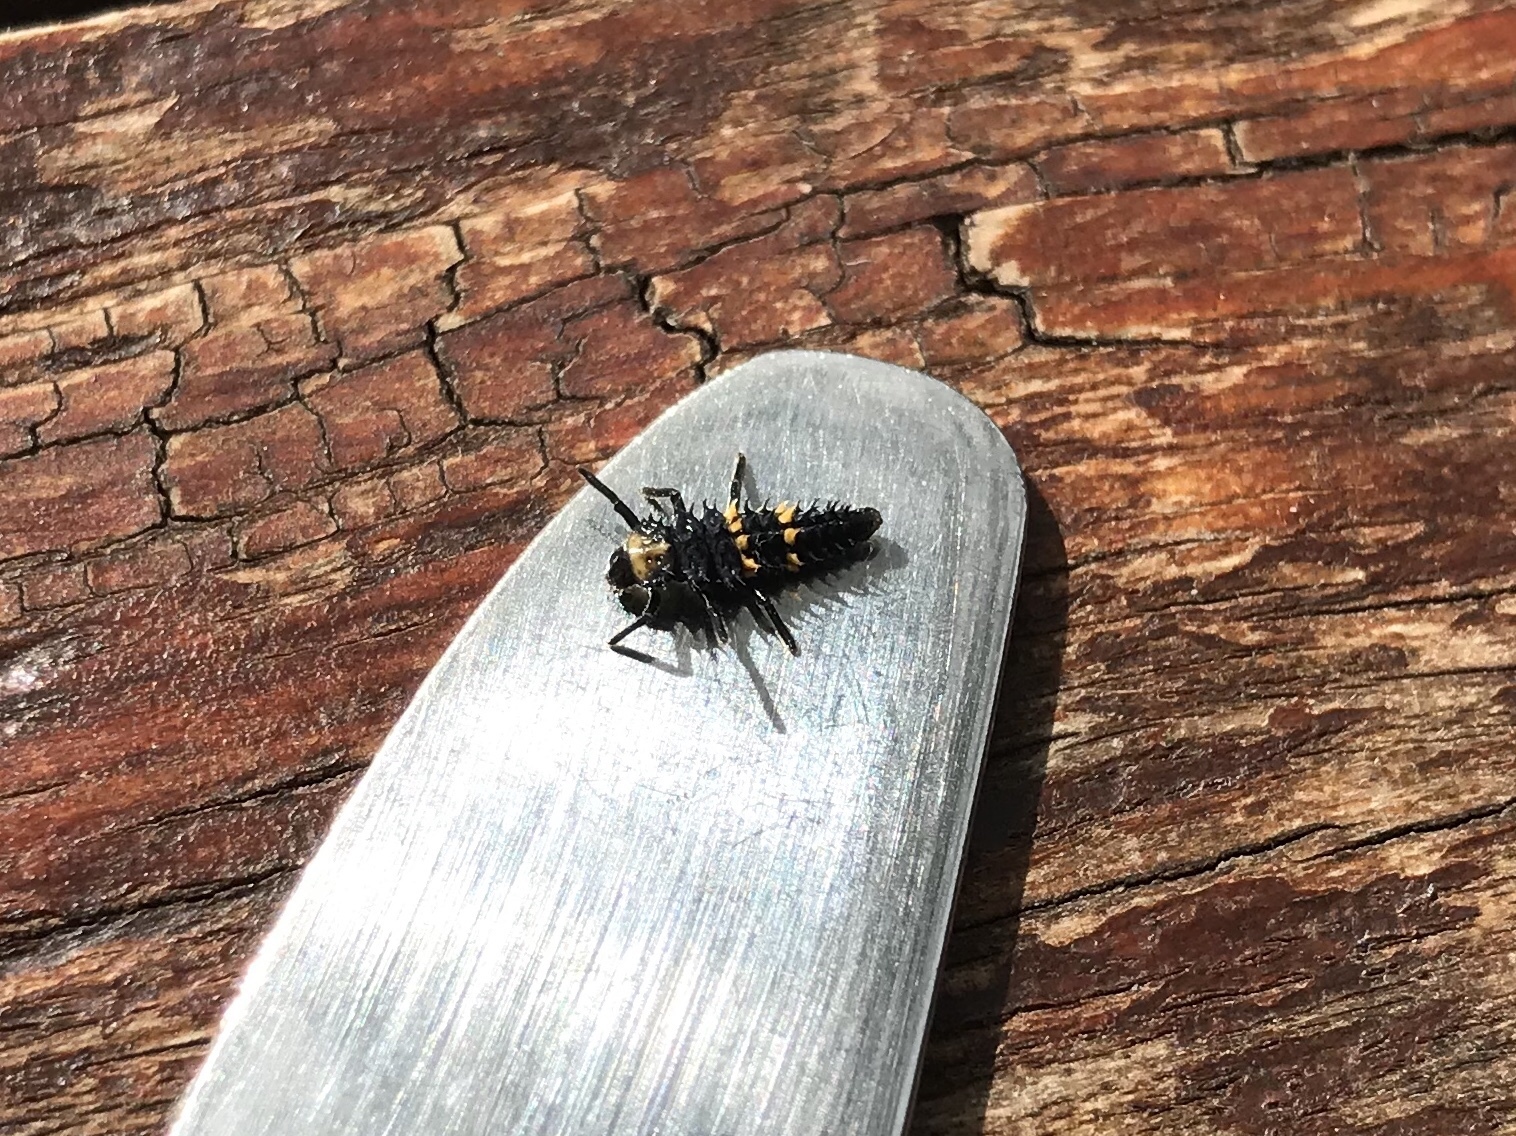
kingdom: Animalia
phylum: Arthropoda
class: Insecta
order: Coleoptera
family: Coccinellidae
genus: Harmonia
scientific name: Harmonia conformis
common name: Common spotted ladybird beetle
